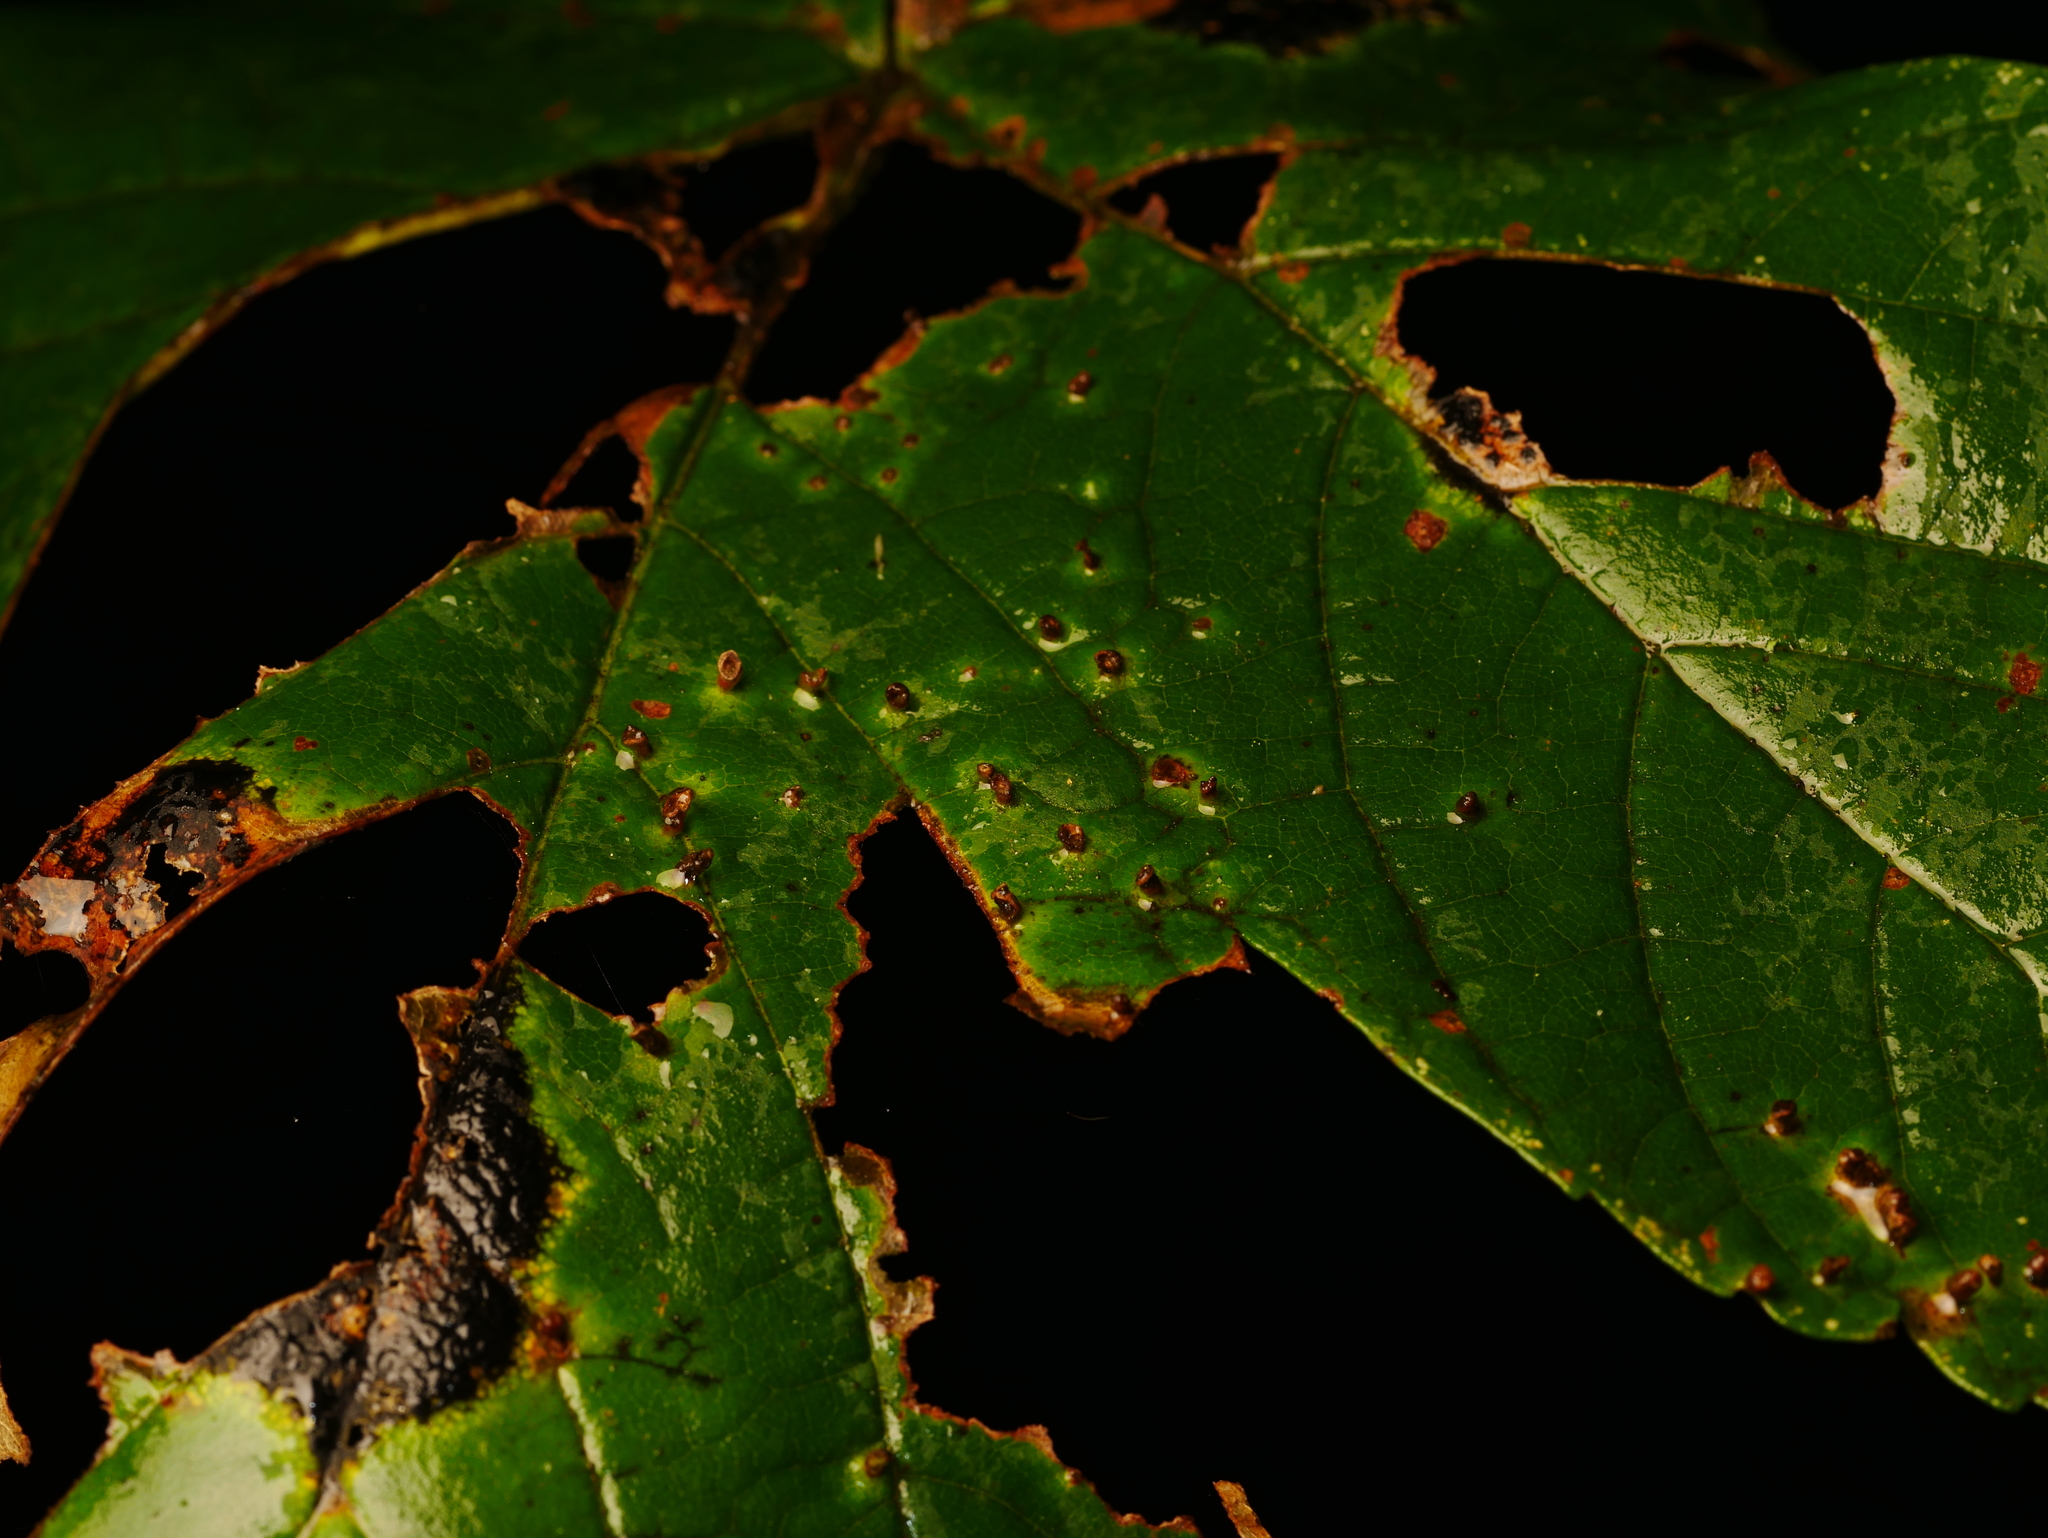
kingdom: Animalia
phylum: Arthropoda
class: Arachnida
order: Trombidiformes
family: Eriophyidae
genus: Aceria
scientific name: Aceria cephaloneus
